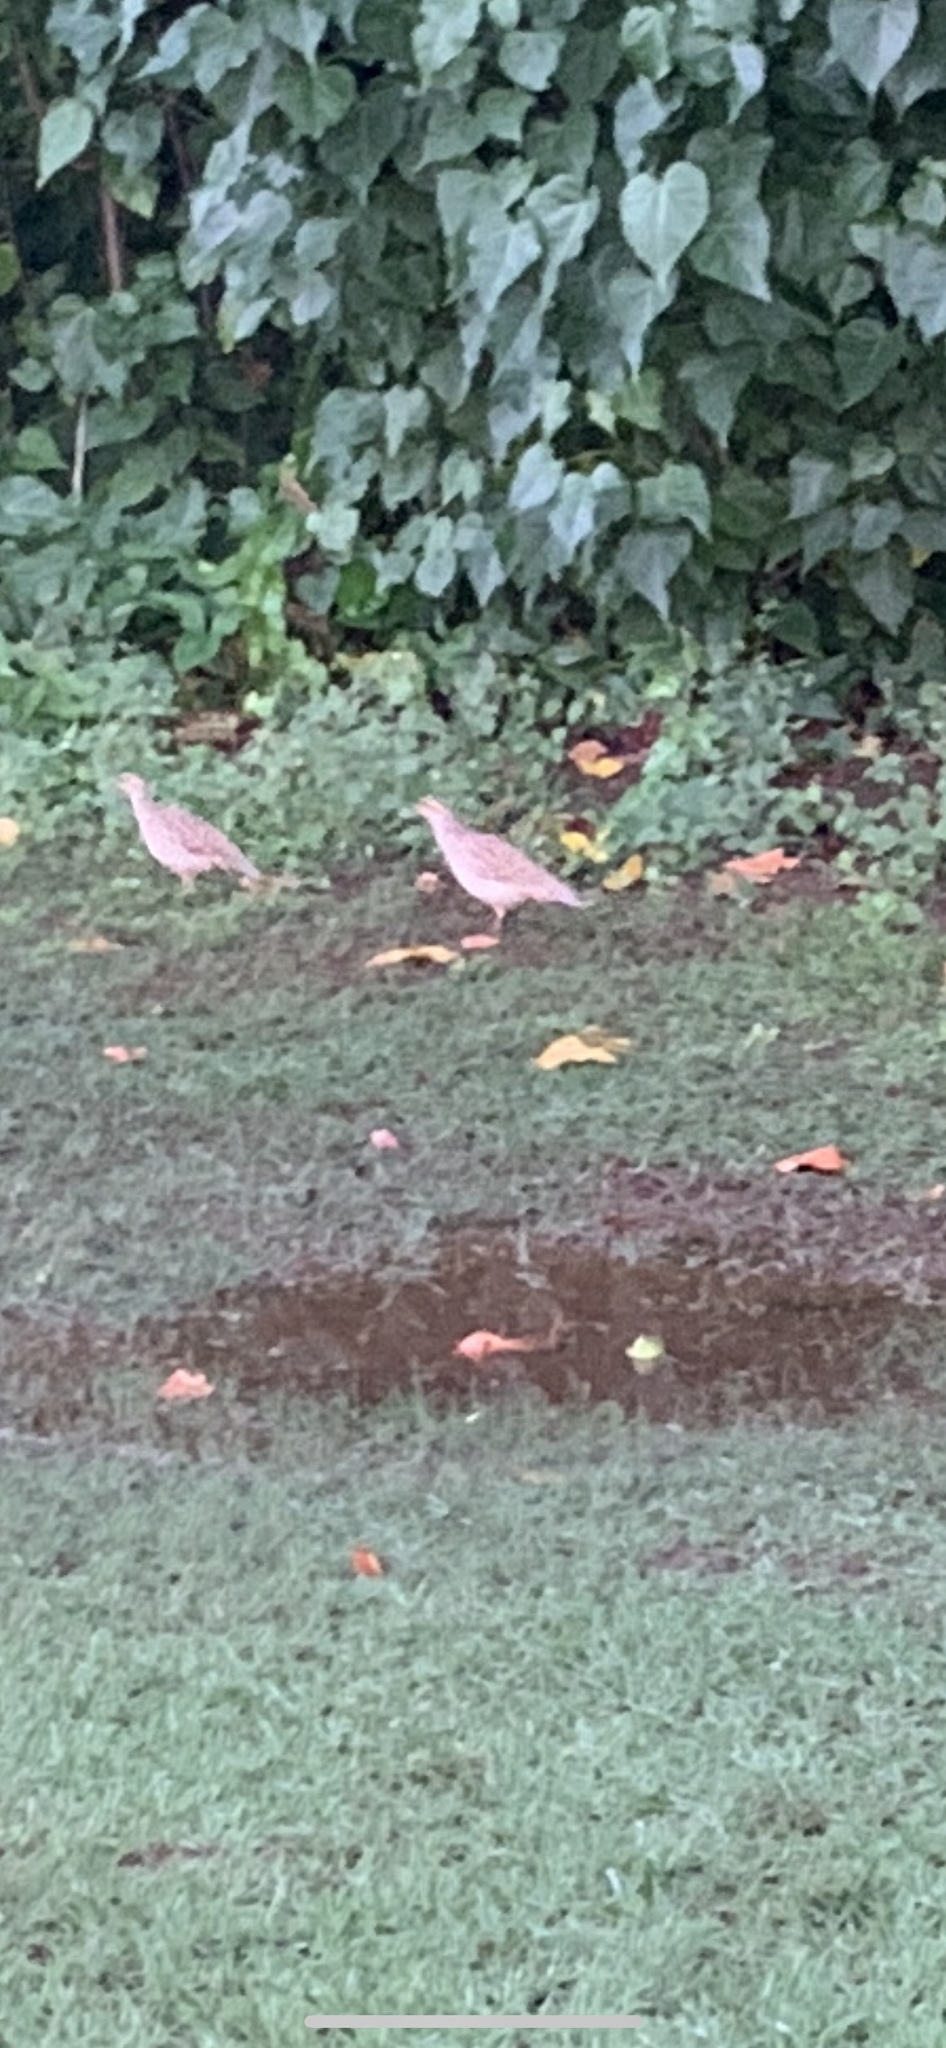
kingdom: Animalia
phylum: Chordata
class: Aves
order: Galliformes
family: Phasianidae
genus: Ortygornis
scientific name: Ortygornis pondicerianus
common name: Grey francolin
